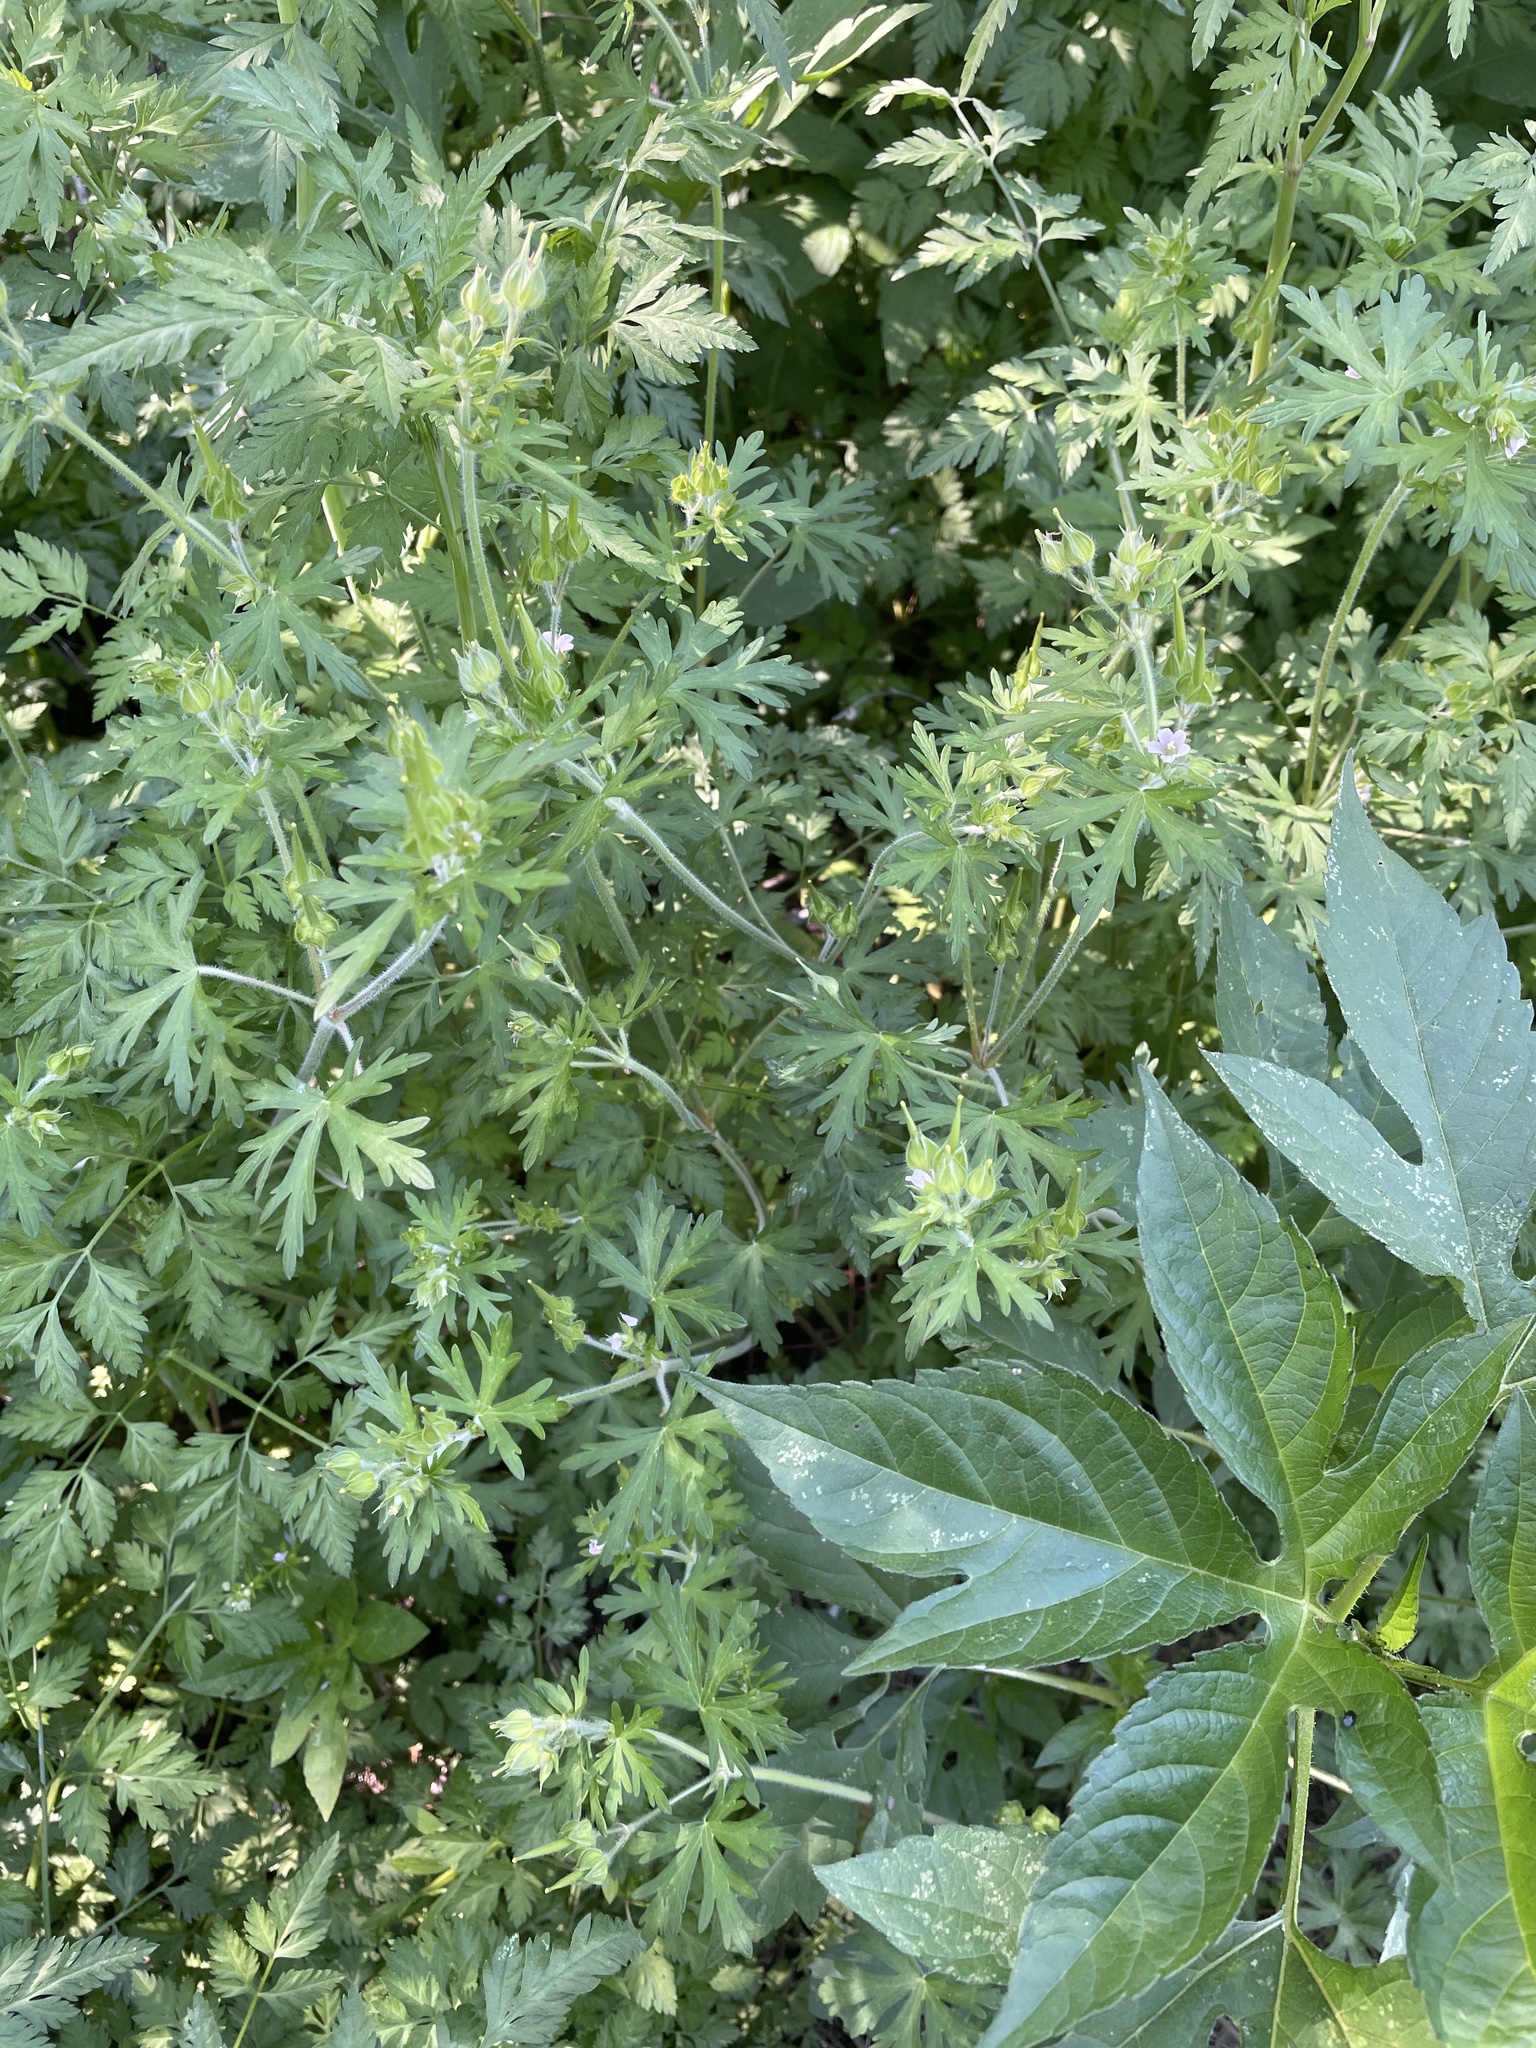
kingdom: Plantae
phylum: Tracheophyta
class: Magnoliopsida
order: Geraniales
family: Geraniaceae
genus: Geranium
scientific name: Geranium carolinianum
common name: Carolina crane's-bill
